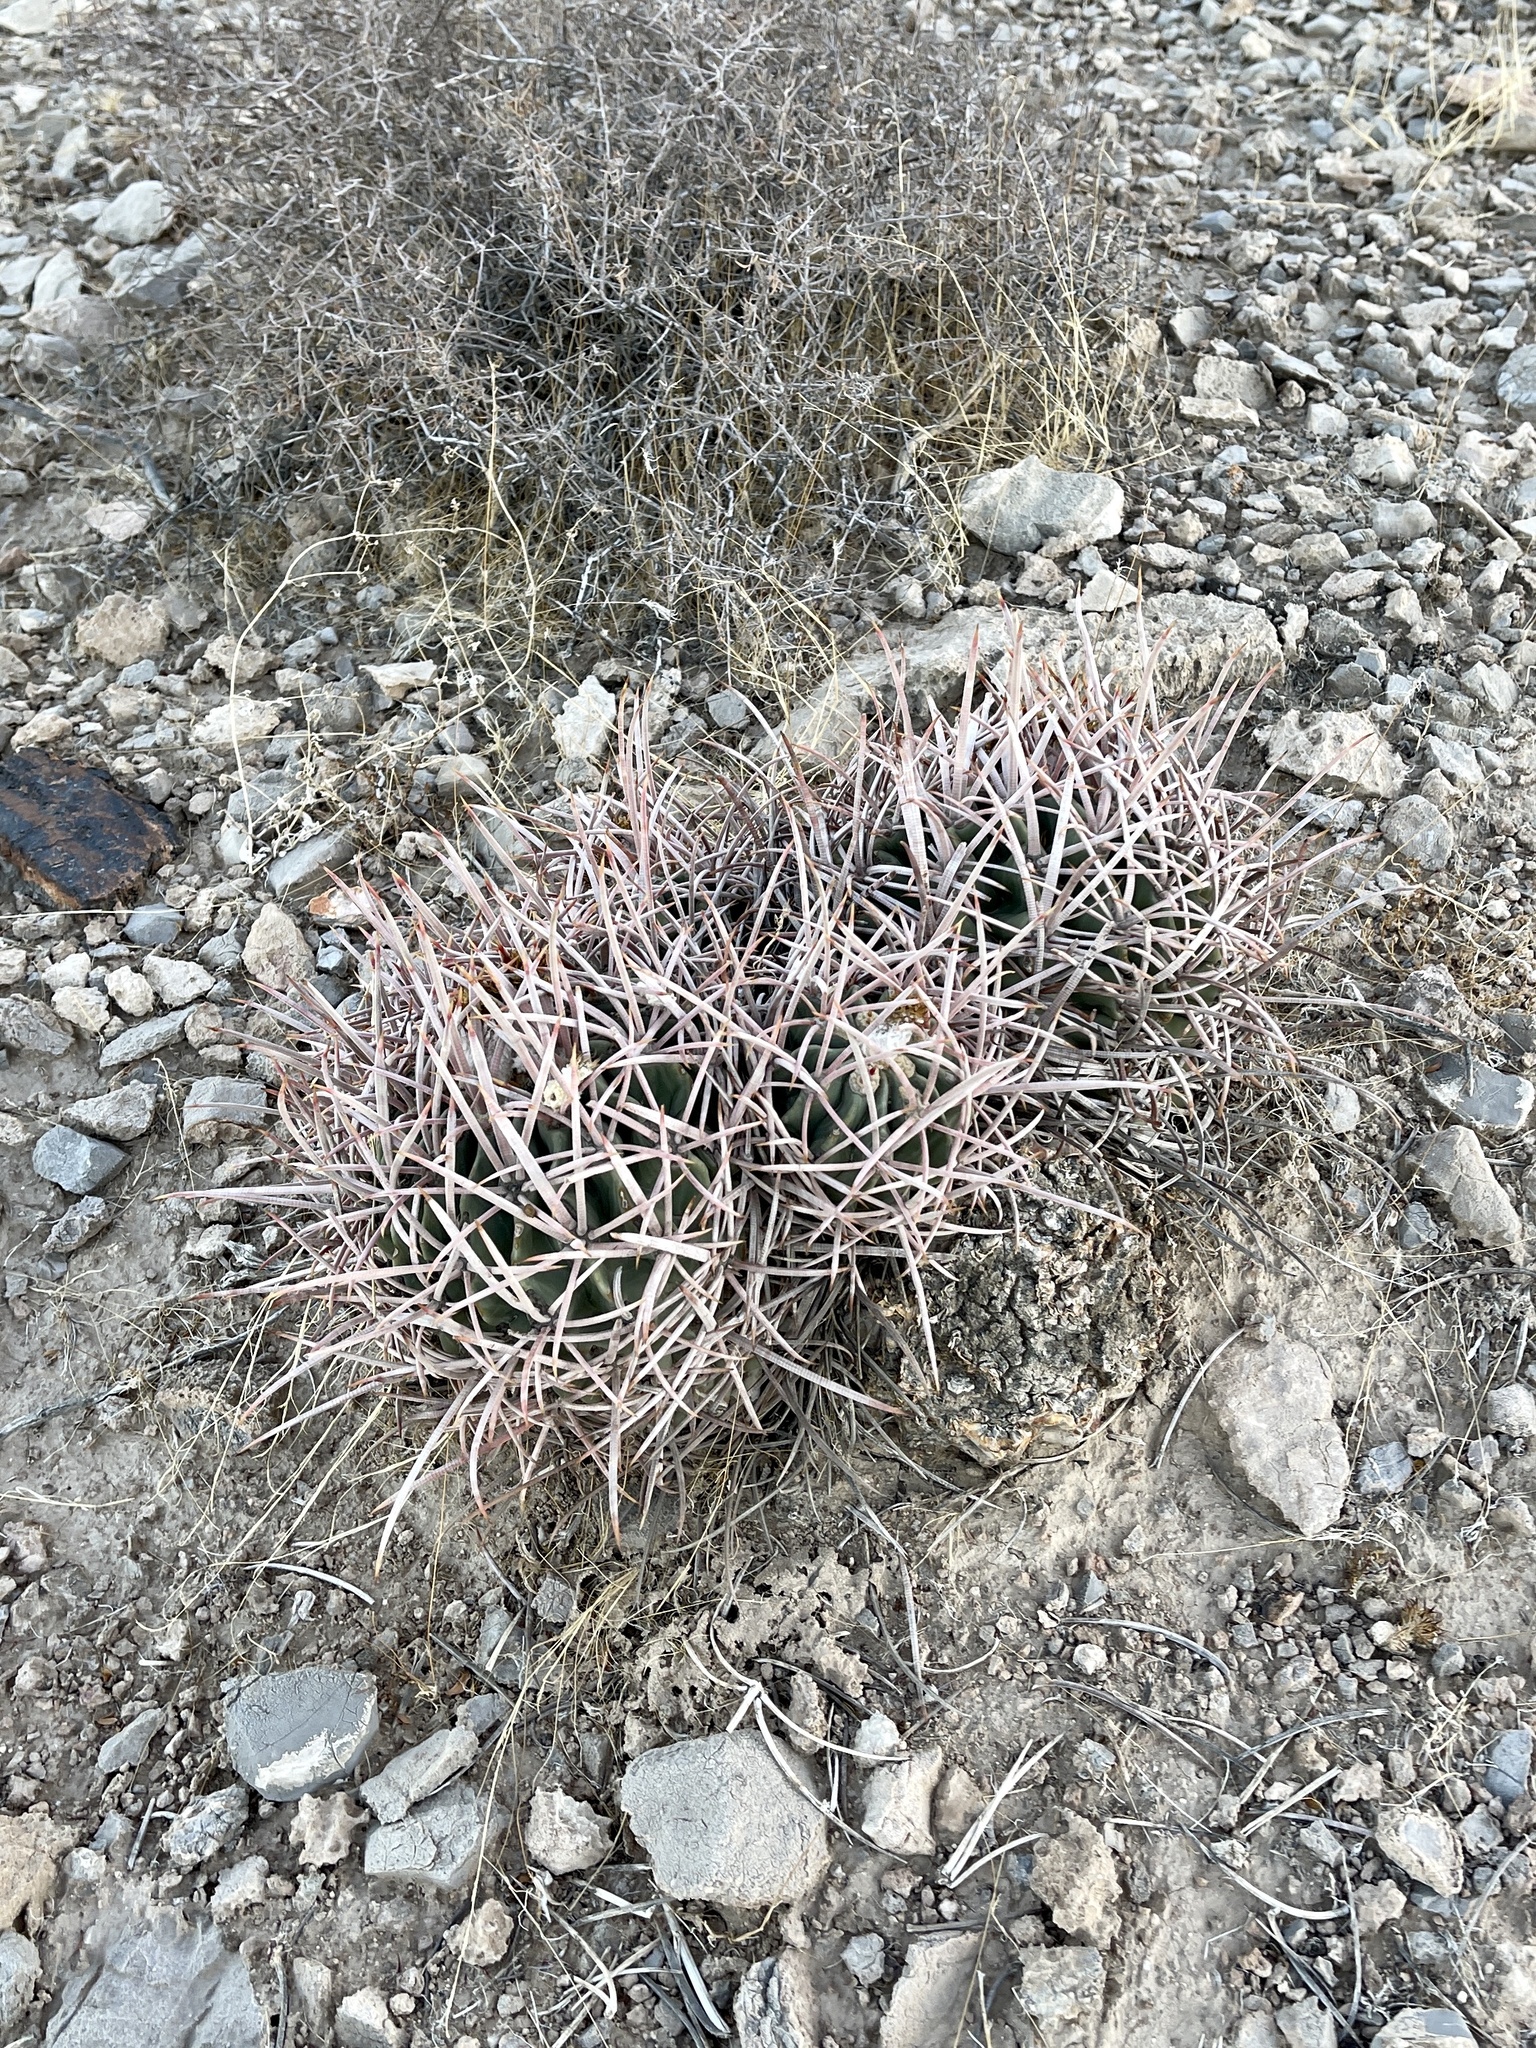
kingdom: Plantae
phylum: Tracheophyta
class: Magnoliopsida
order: Caryophyllales
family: Cactaceae
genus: Echinocactus
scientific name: Echinocactus polycephalus
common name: Cottontop cactus
